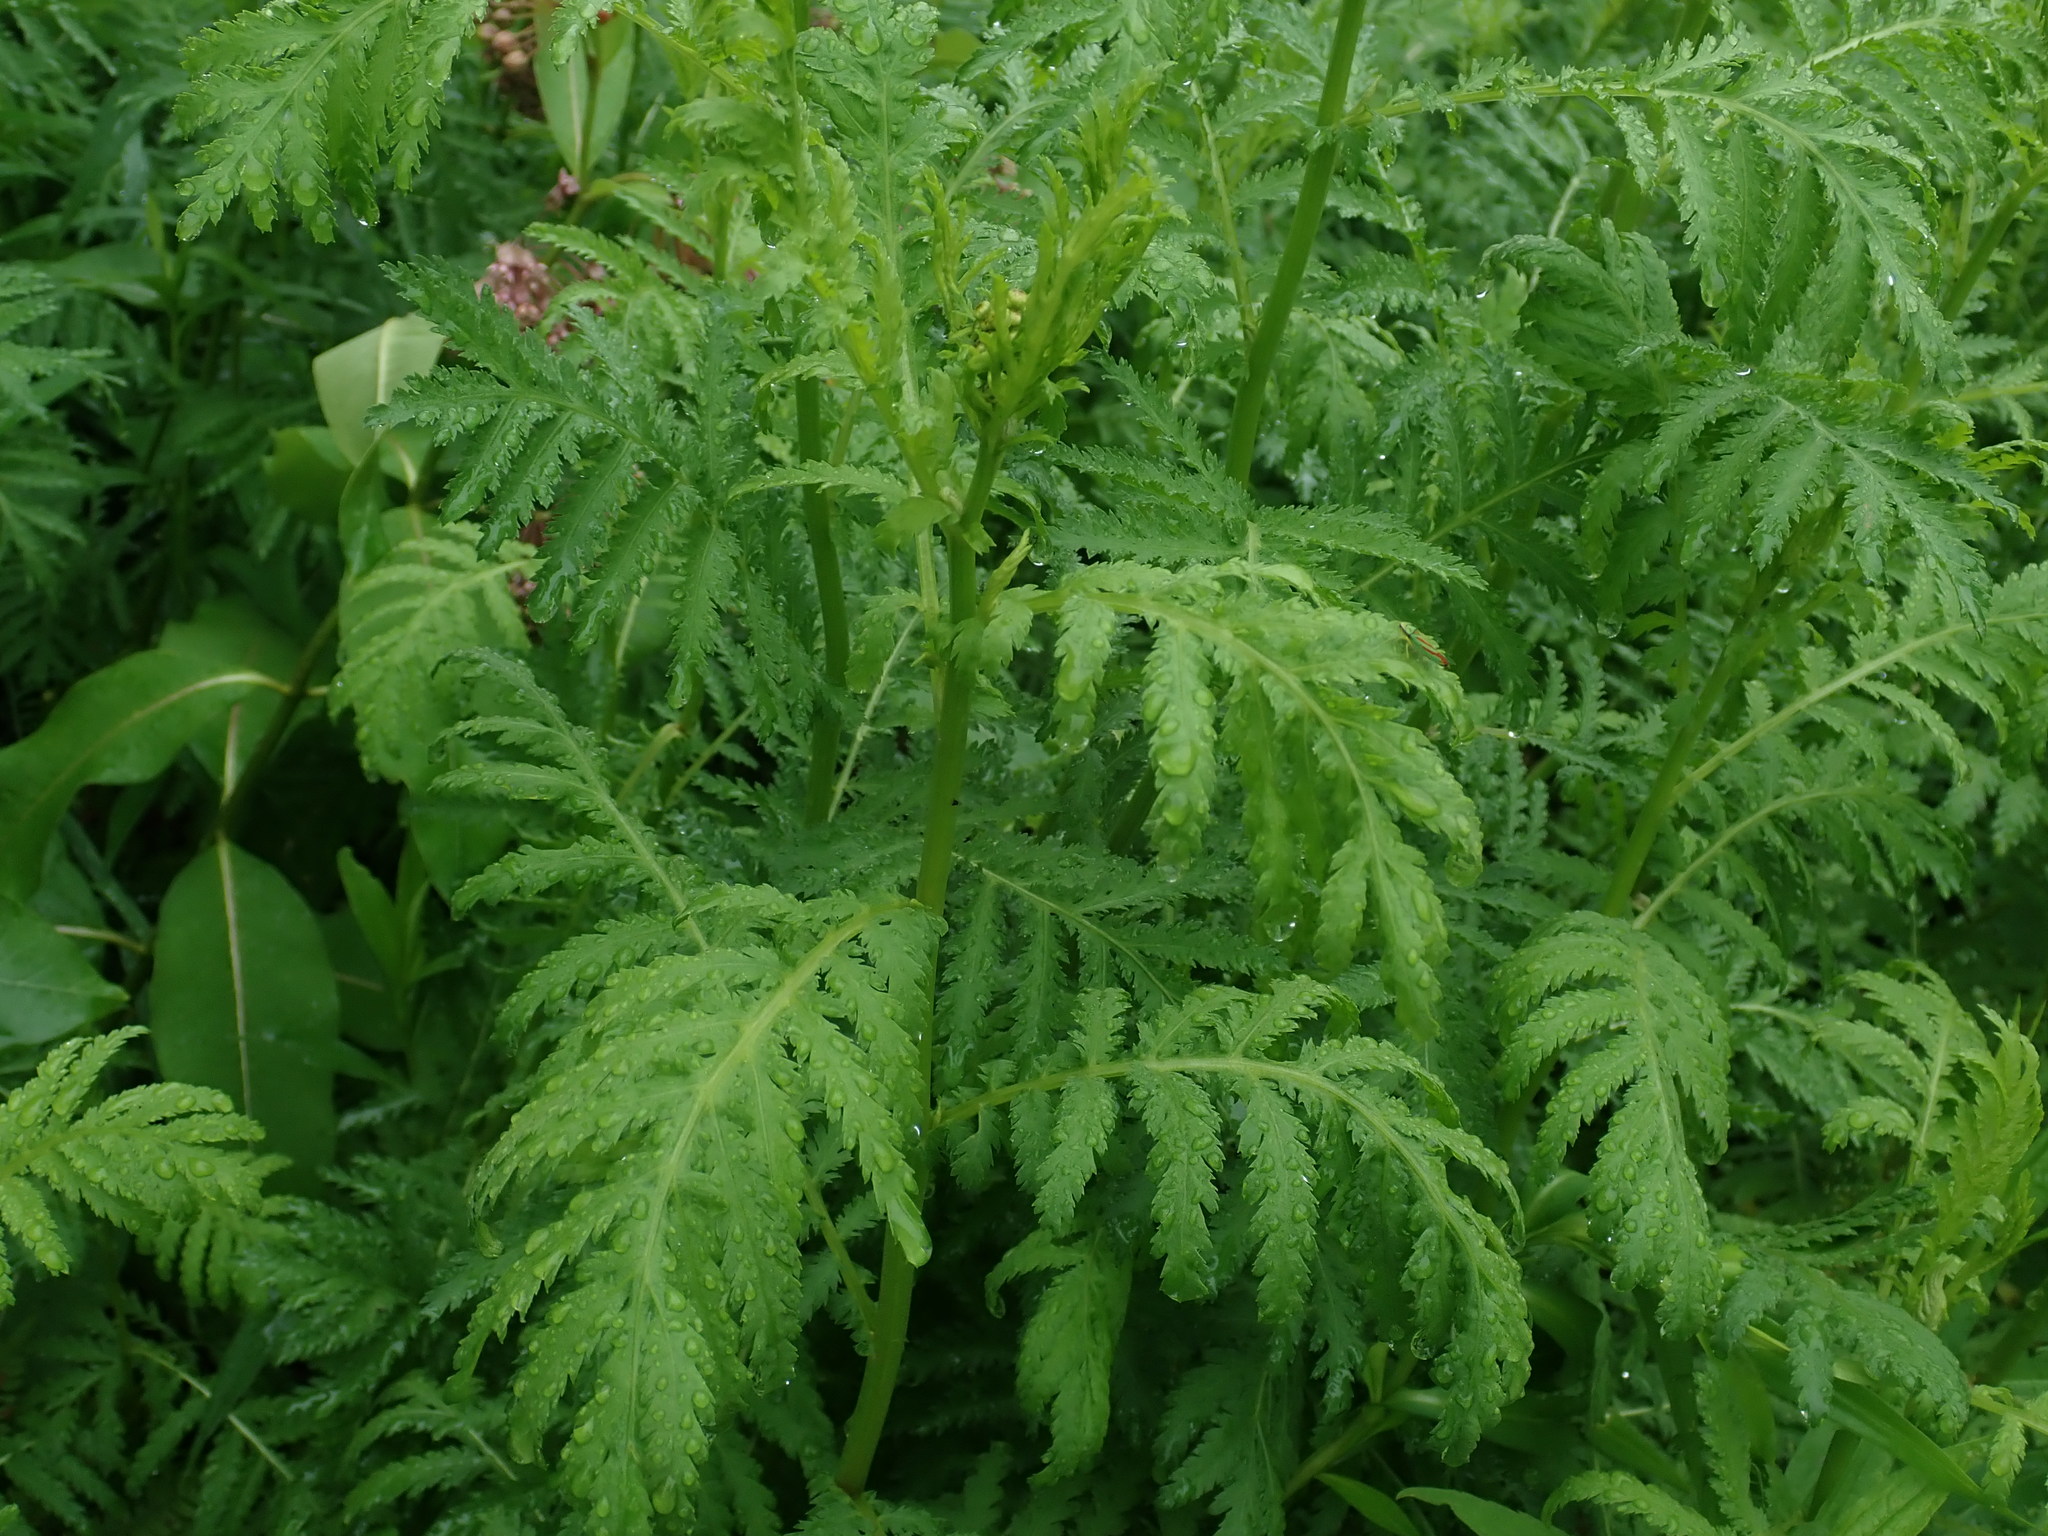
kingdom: Plantae
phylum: Tracheophyta
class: Magnoliopsida
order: Asterales
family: Asteraceae
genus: Tanacetum
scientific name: Tanacetum vulgare
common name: Common tansy
